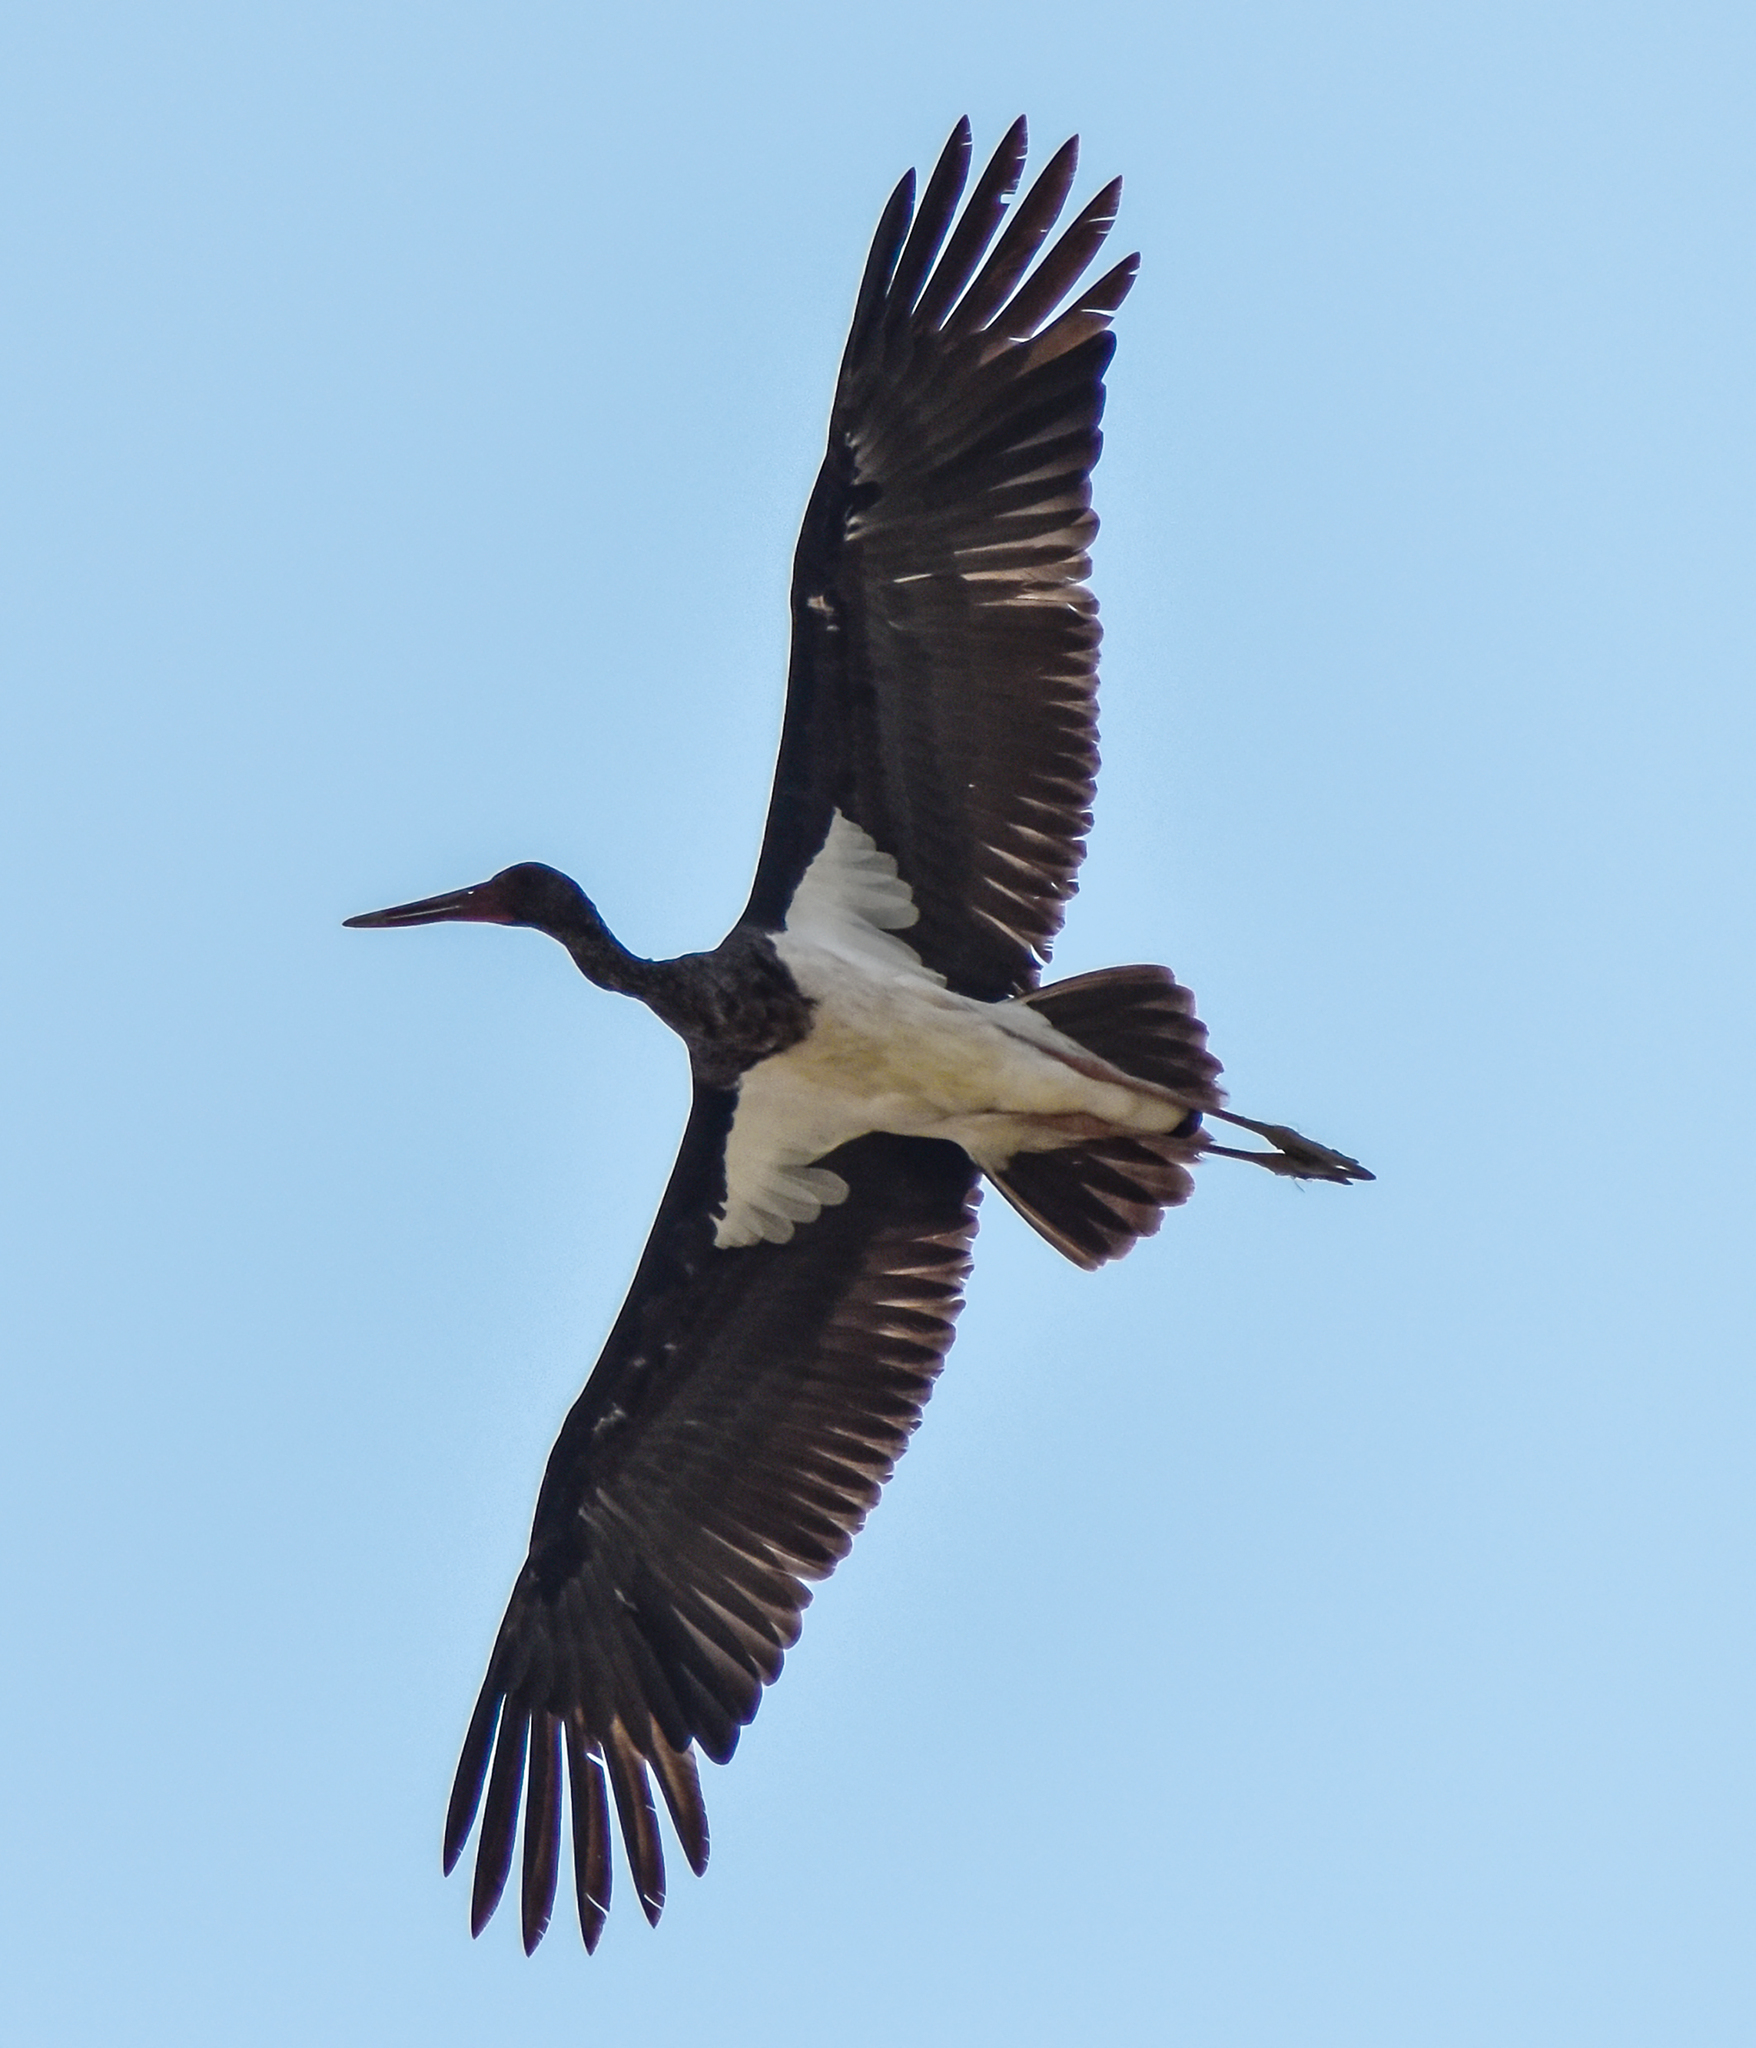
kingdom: Animalia
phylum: Chordata
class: Aves
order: Ciconiiformes
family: Ciconiidae
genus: Ciconia
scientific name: Ciconia nigra
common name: Black stork
